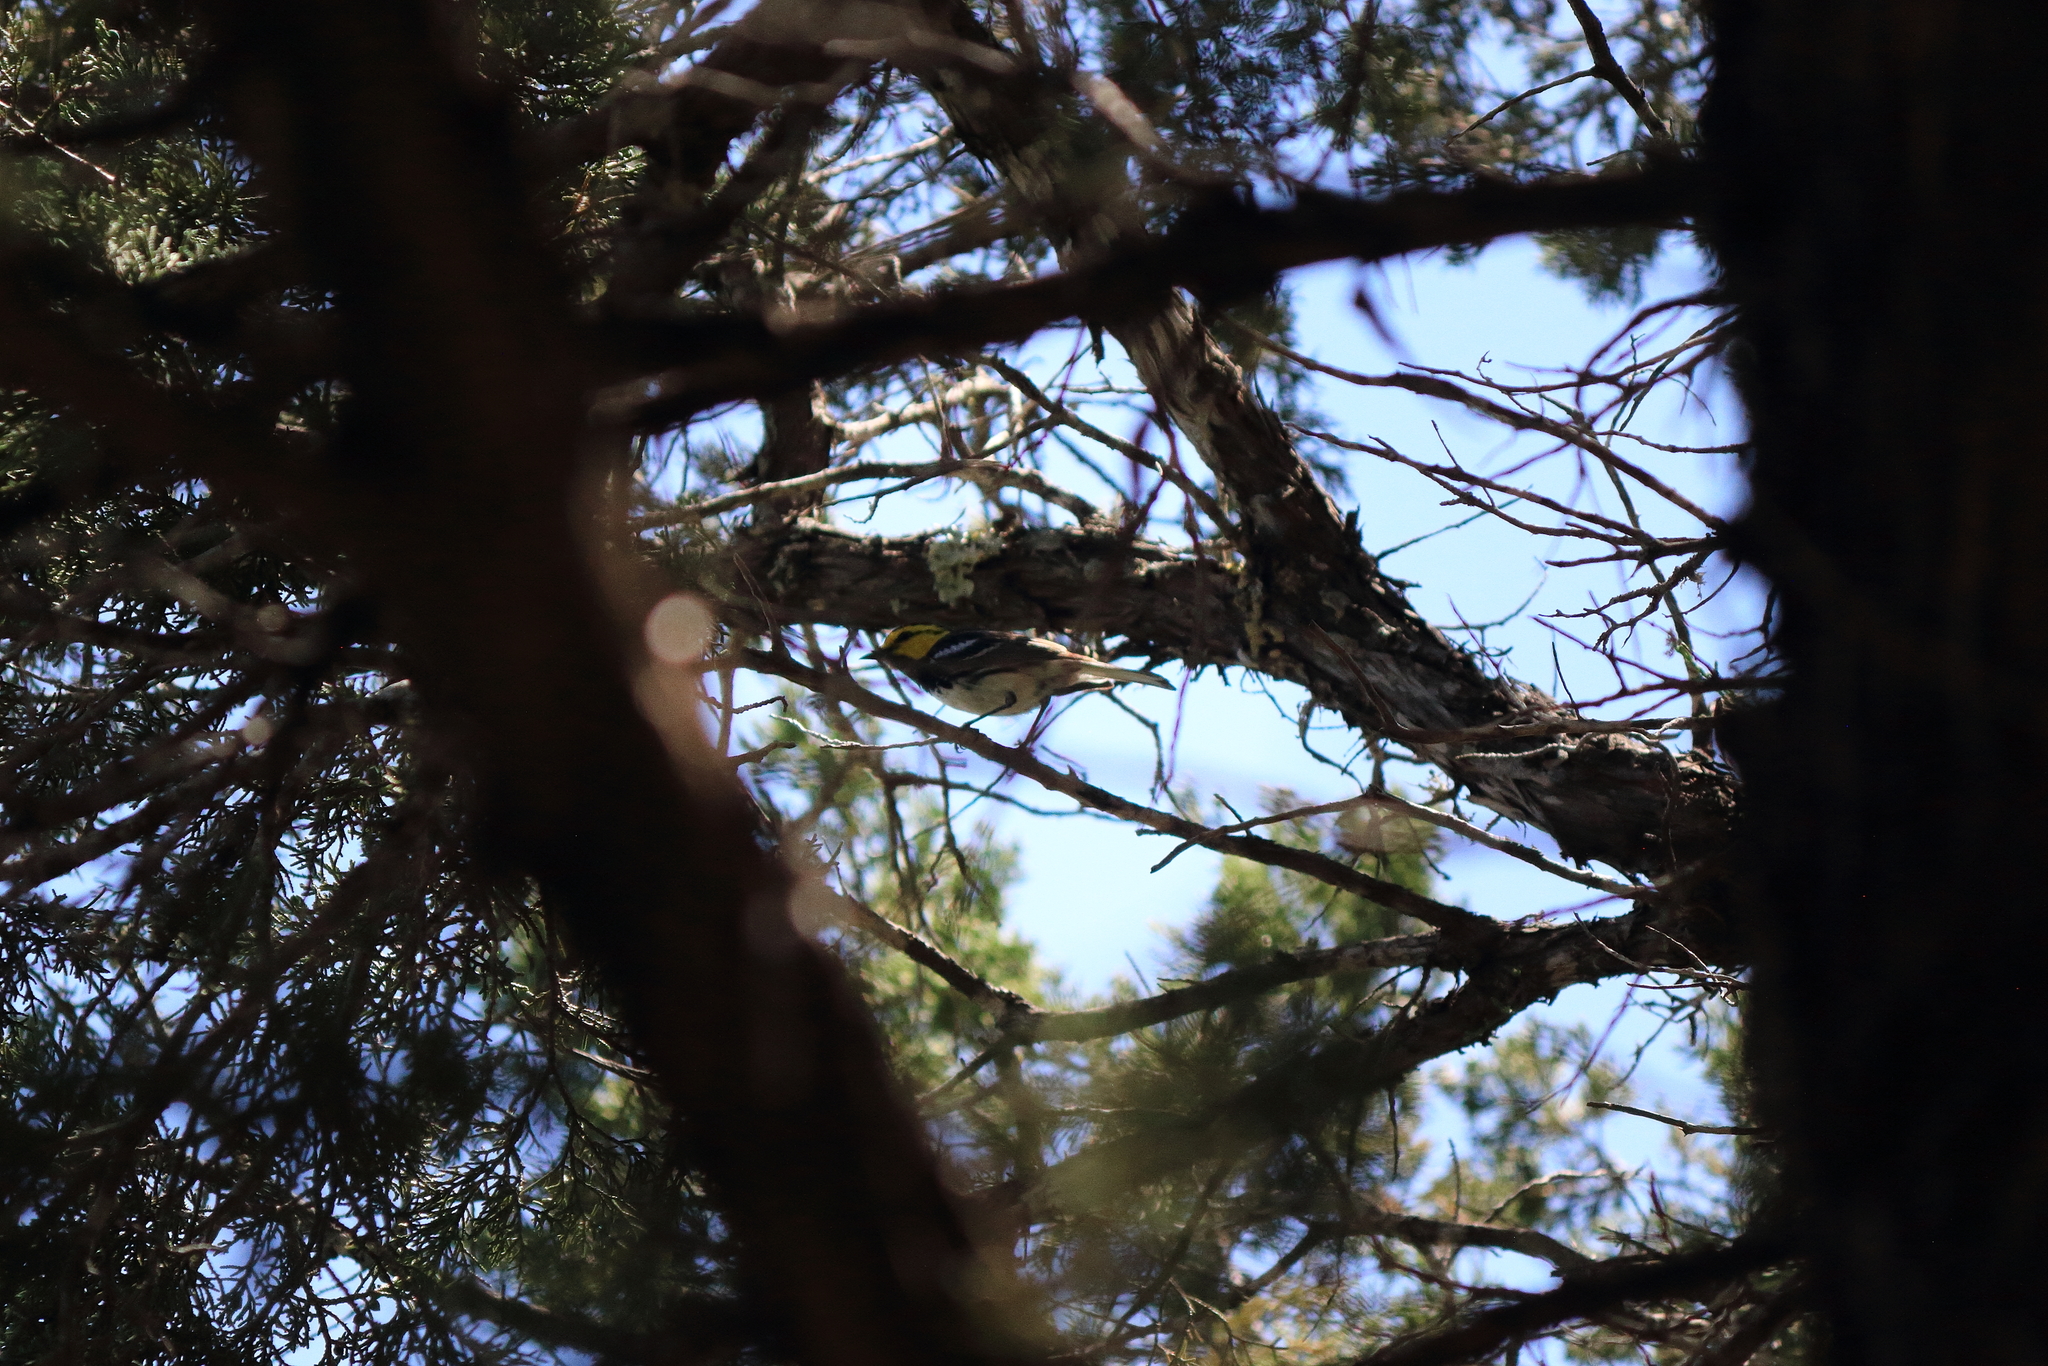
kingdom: Animalia
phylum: Chordata
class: Aves
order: Passeriformes
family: Parulidae
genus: Setophaga
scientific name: Setophaga chrysoparia
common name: Golden-cheeked warbler
